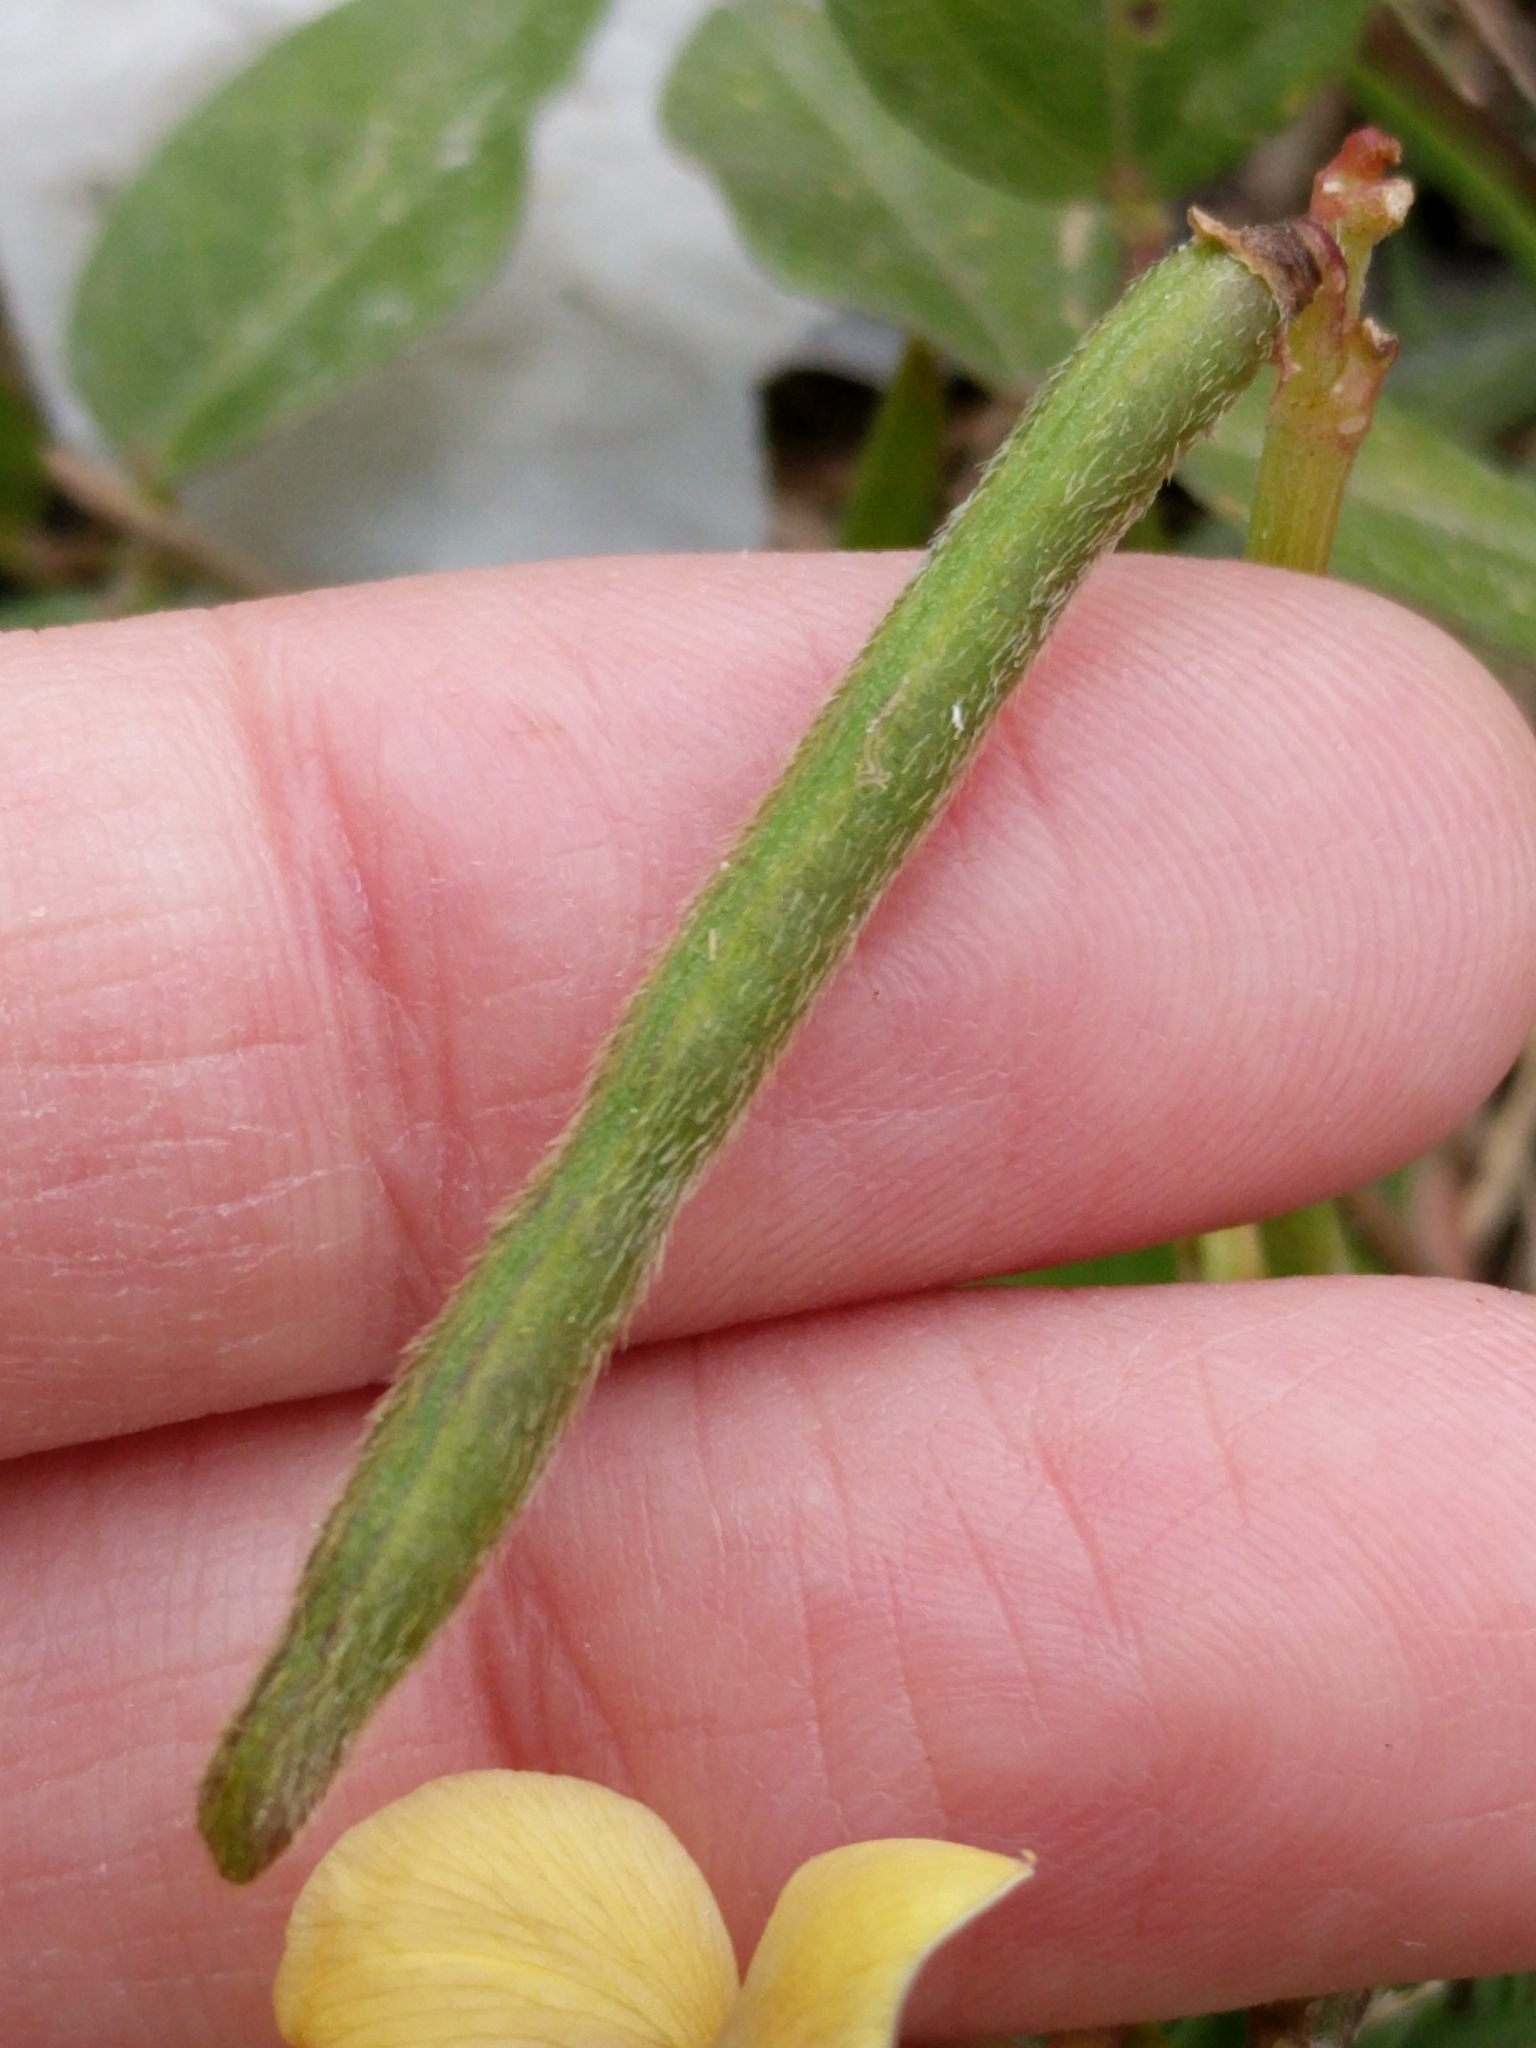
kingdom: Plantae
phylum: Tracheophyta
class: Magnoliopsida
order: Fabales
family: Fabaceae
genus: Vigna
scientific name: Vigna luteola
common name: Hairypod cowpea
